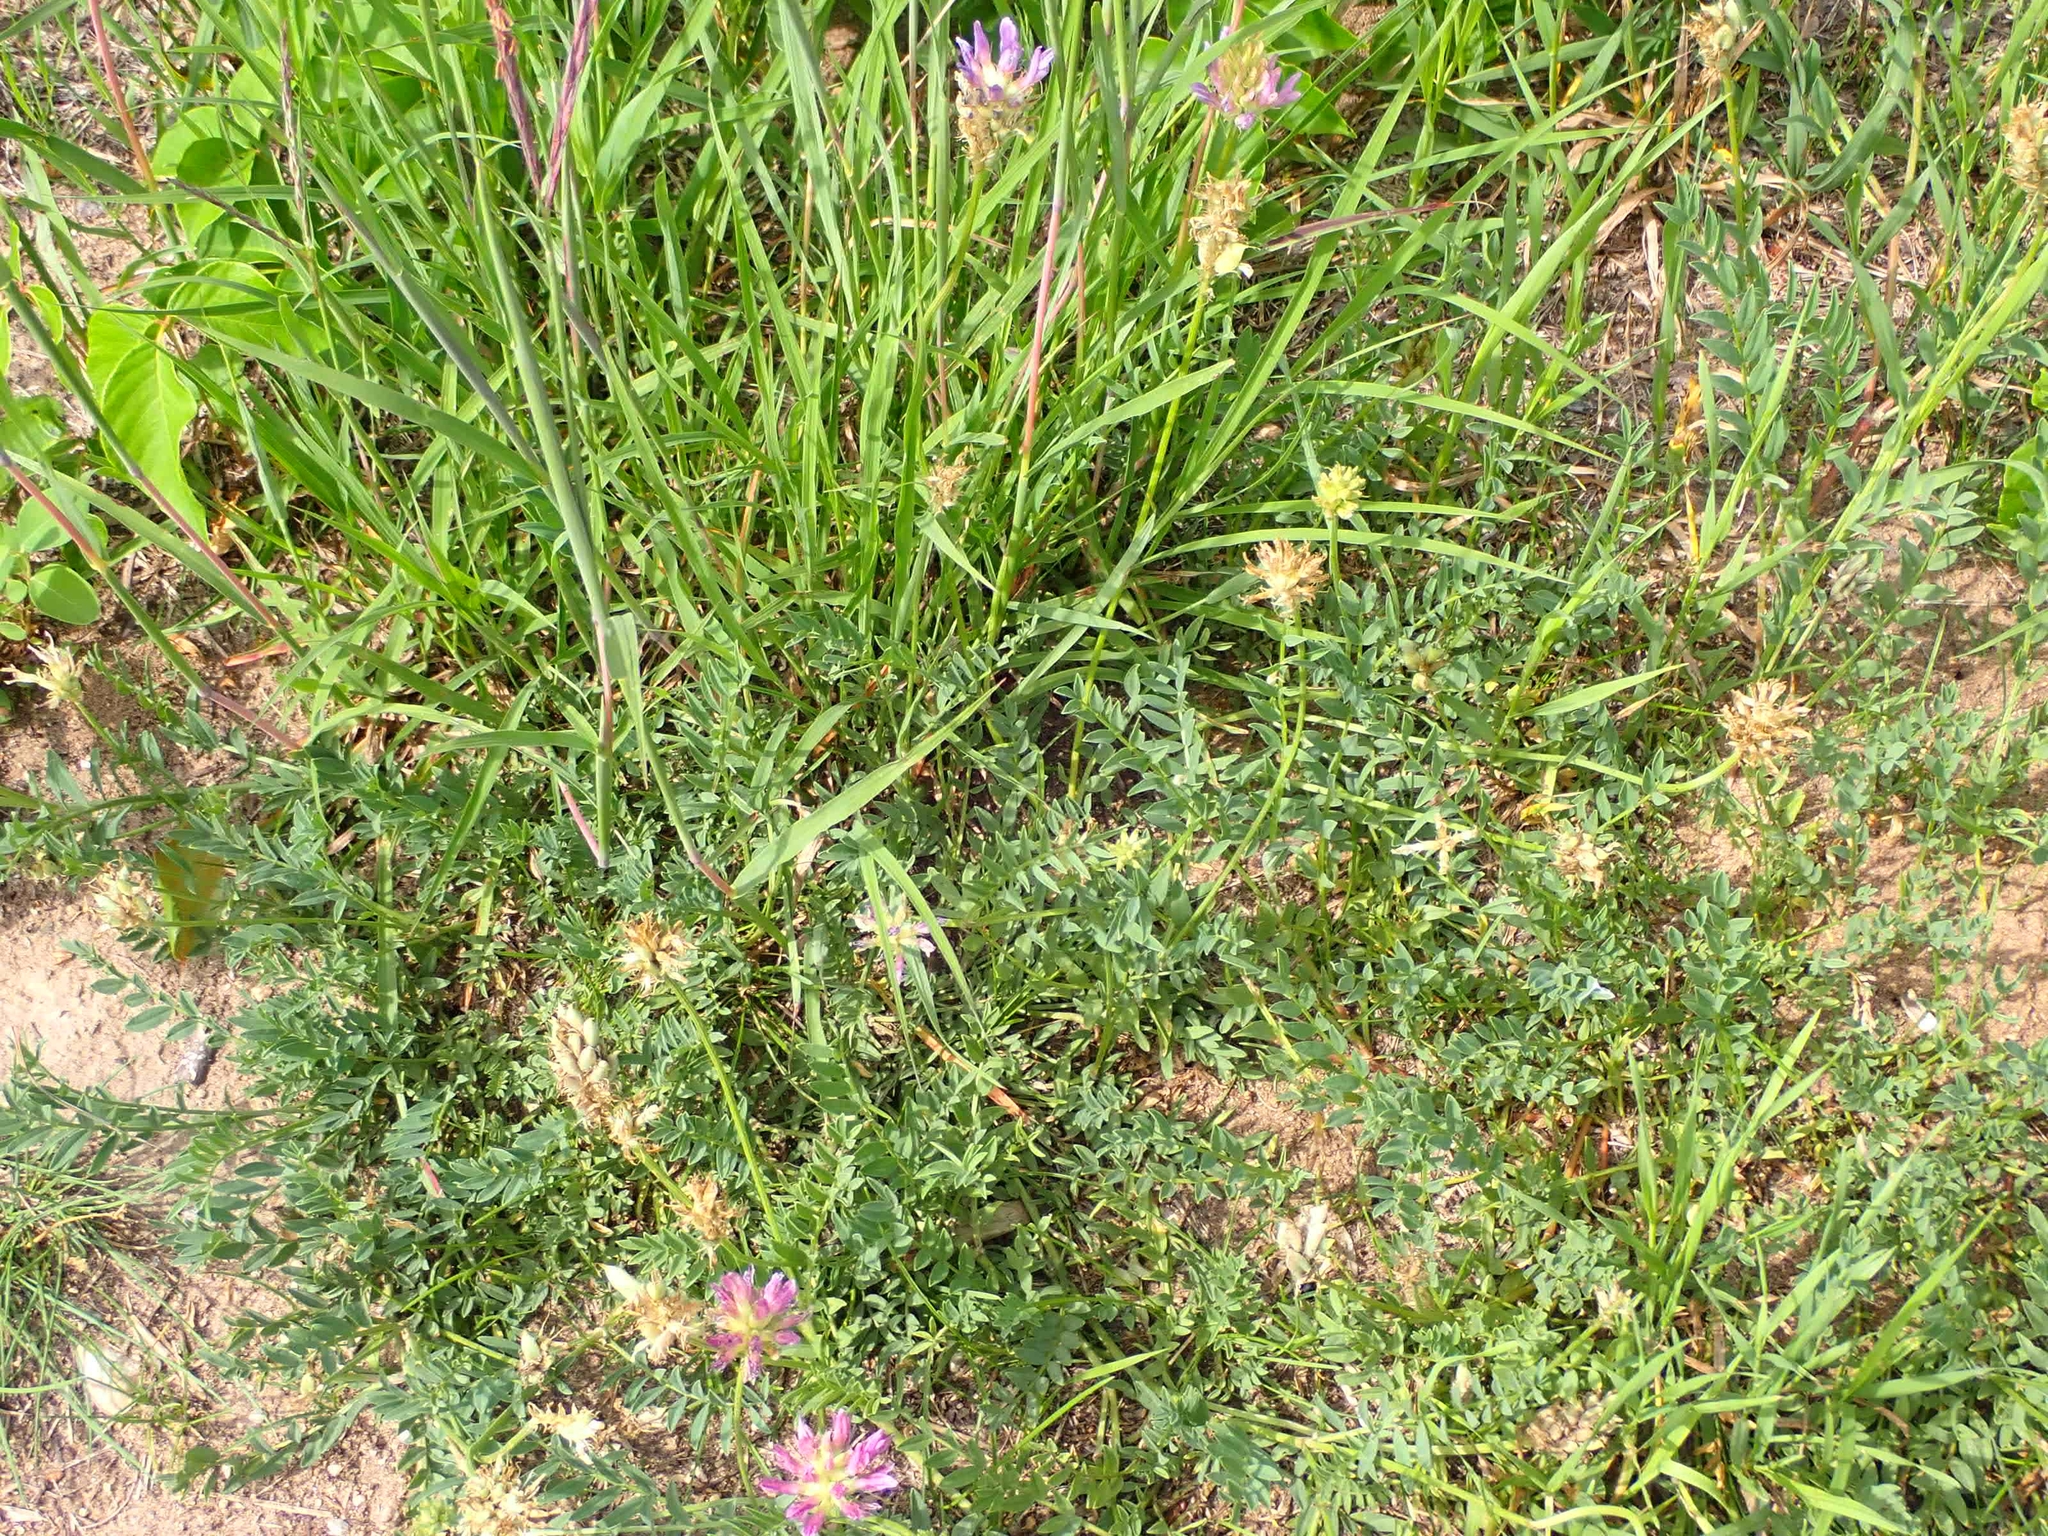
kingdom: Plantae
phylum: Tracheophyta
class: Magnoliopsida
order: Fabales
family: Fabaceae
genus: Astragalus
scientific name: Astragalus laxmannii
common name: Laxmann's milk-vetch
